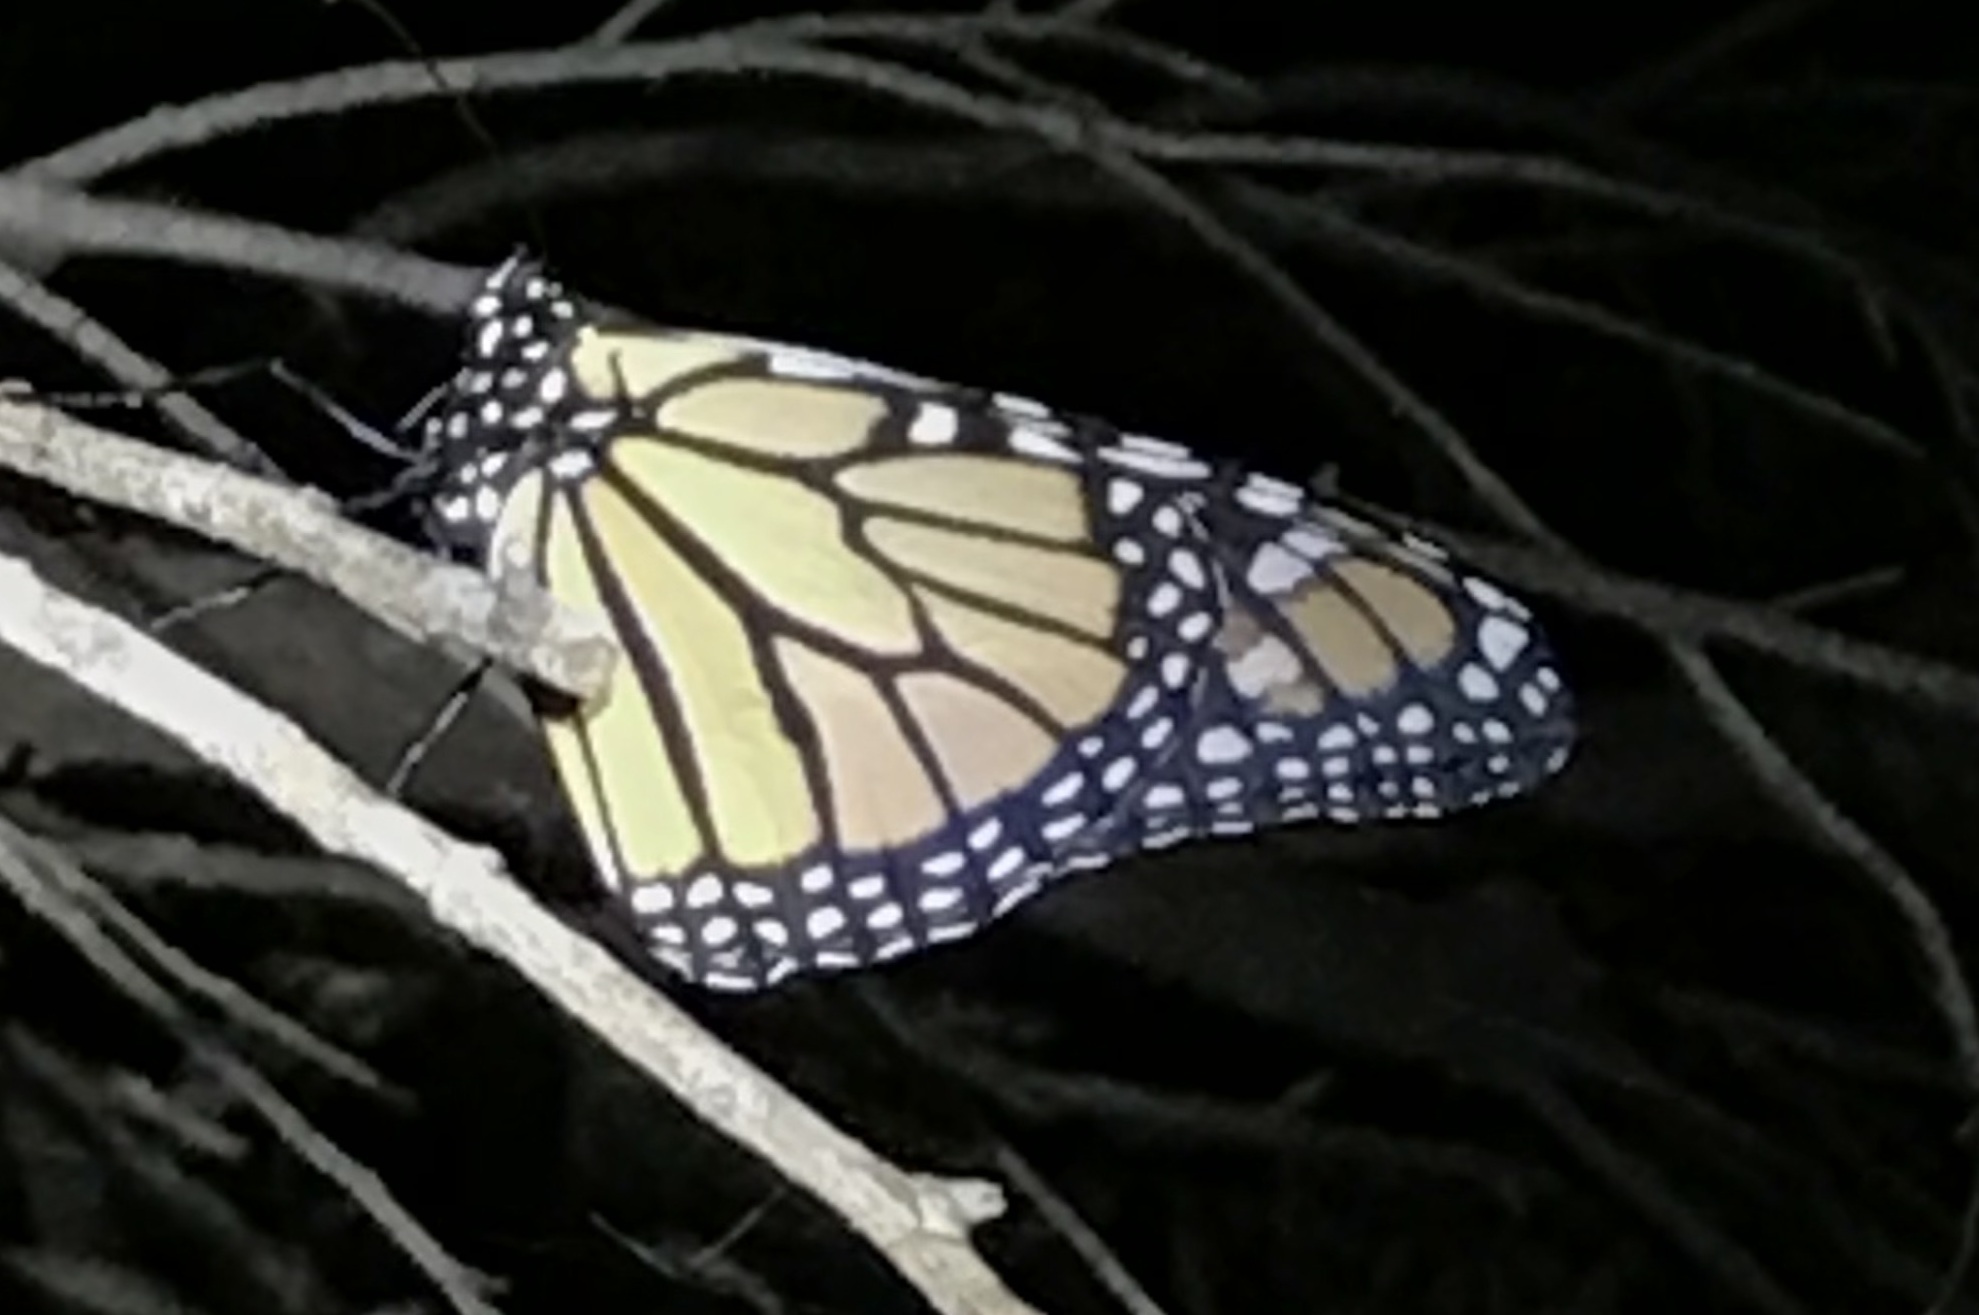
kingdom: Animalia
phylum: Arthropoda
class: Insecta
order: Lepidoptera
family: Nymphalidae
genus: Danaus
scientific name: Danaus plexippus
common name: Monarch
